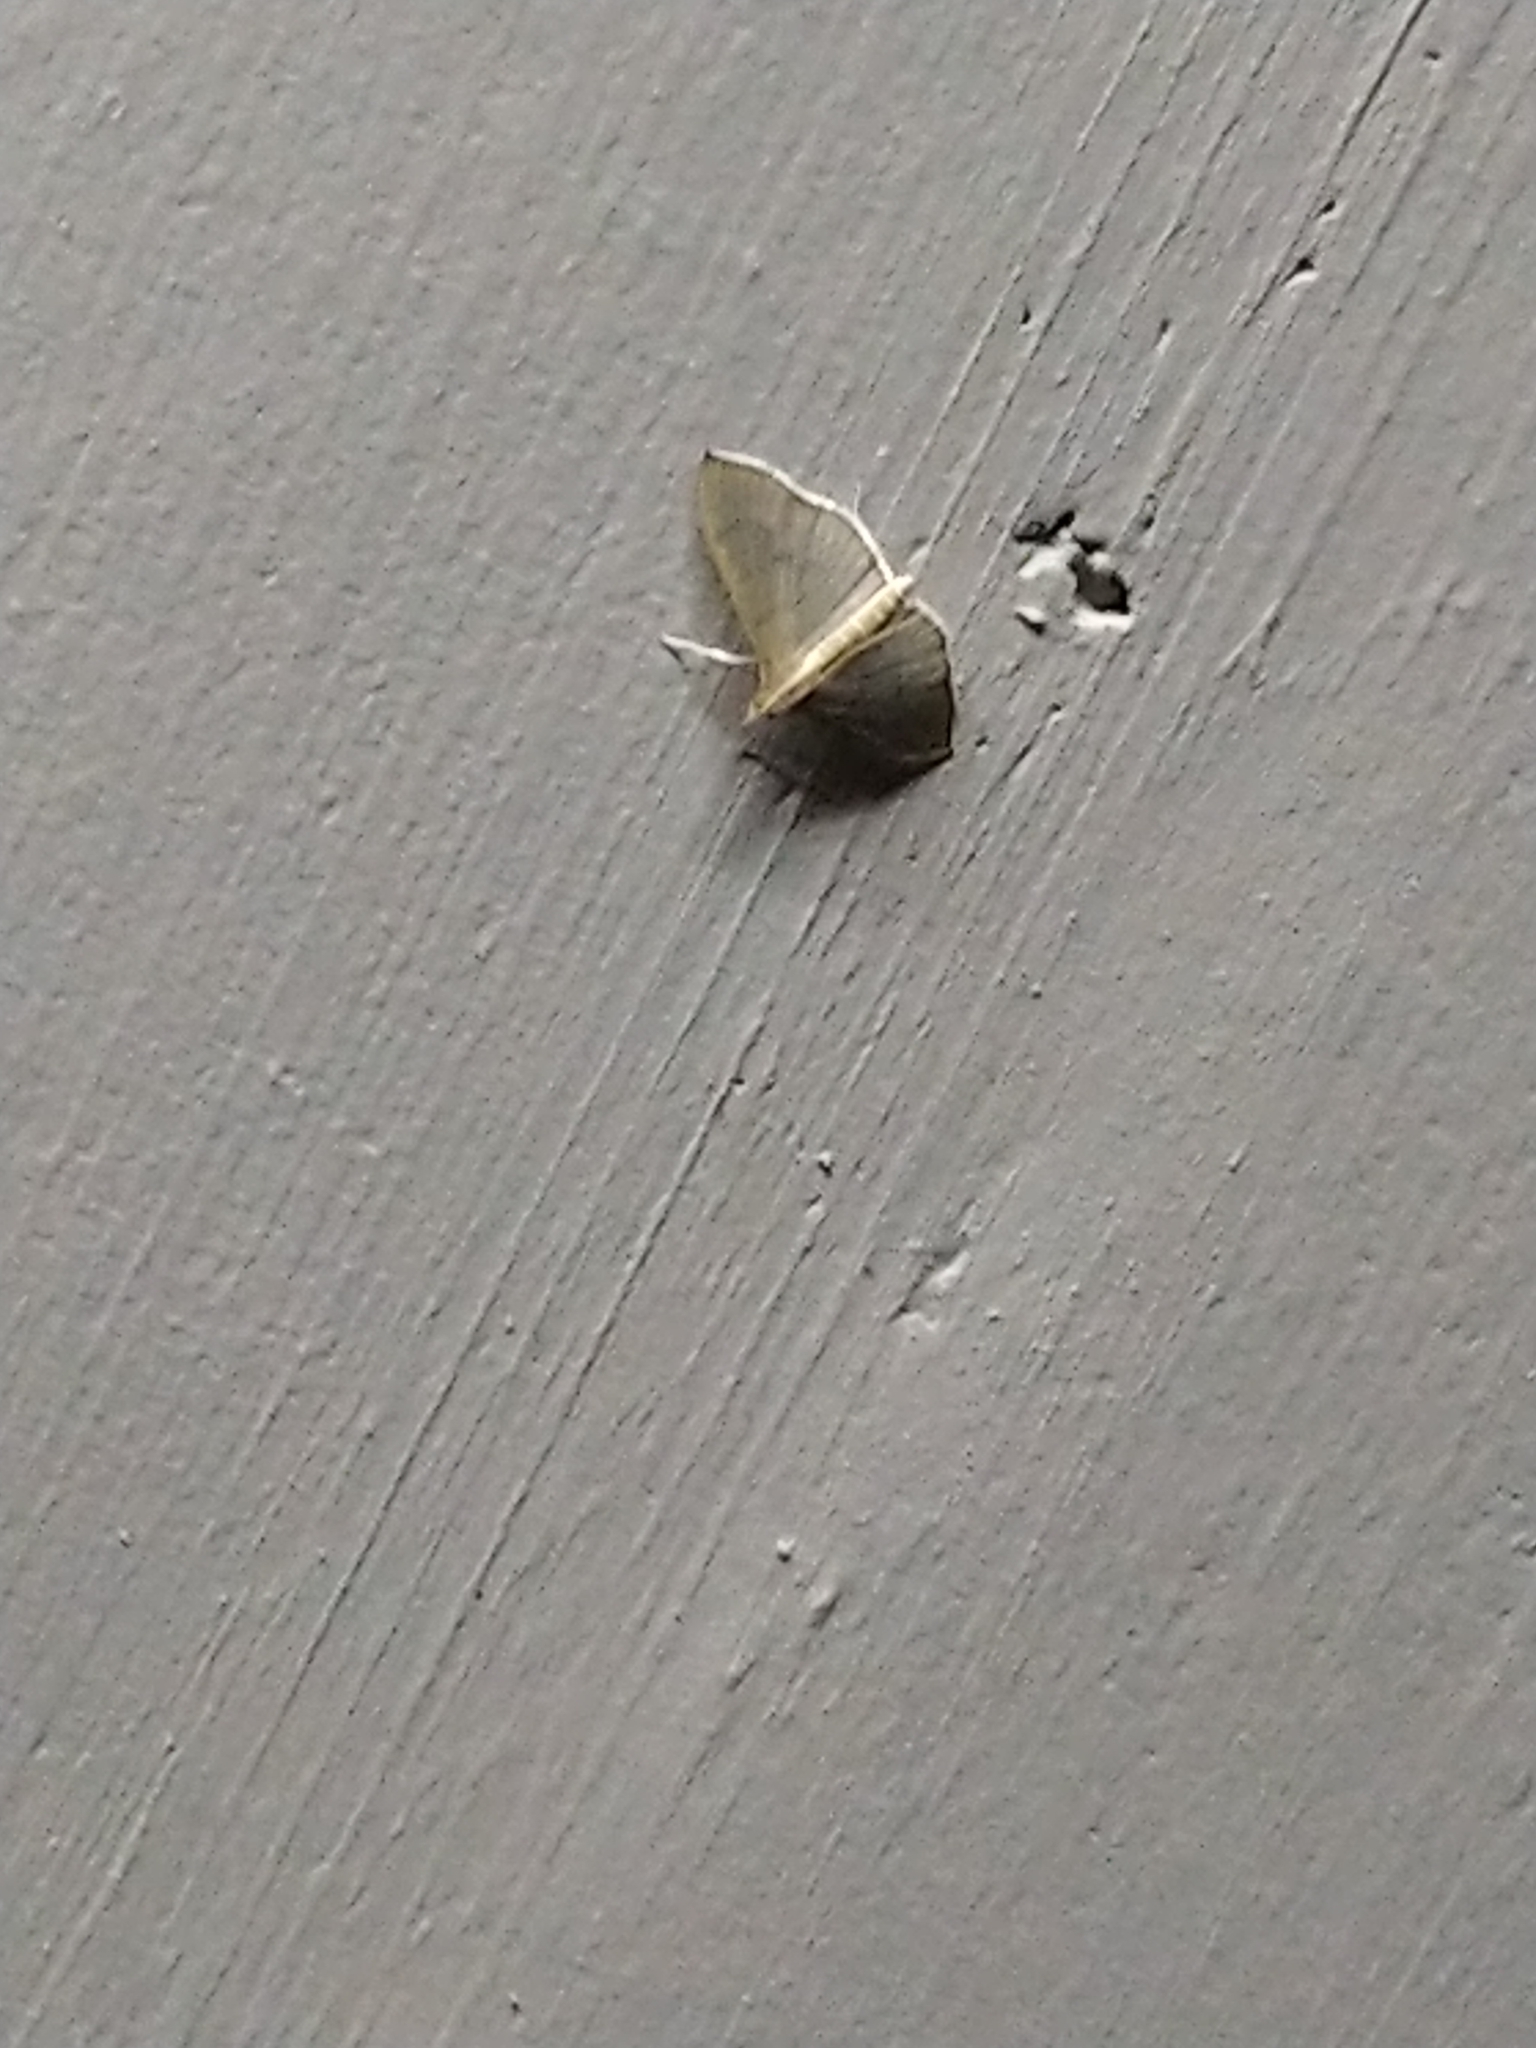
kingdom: Animalia
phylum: Arthropoda
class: Insecta
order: Lepidoptera
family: Crambidae
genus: Lamprophaia
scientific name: Lamprophaia ablactalis
